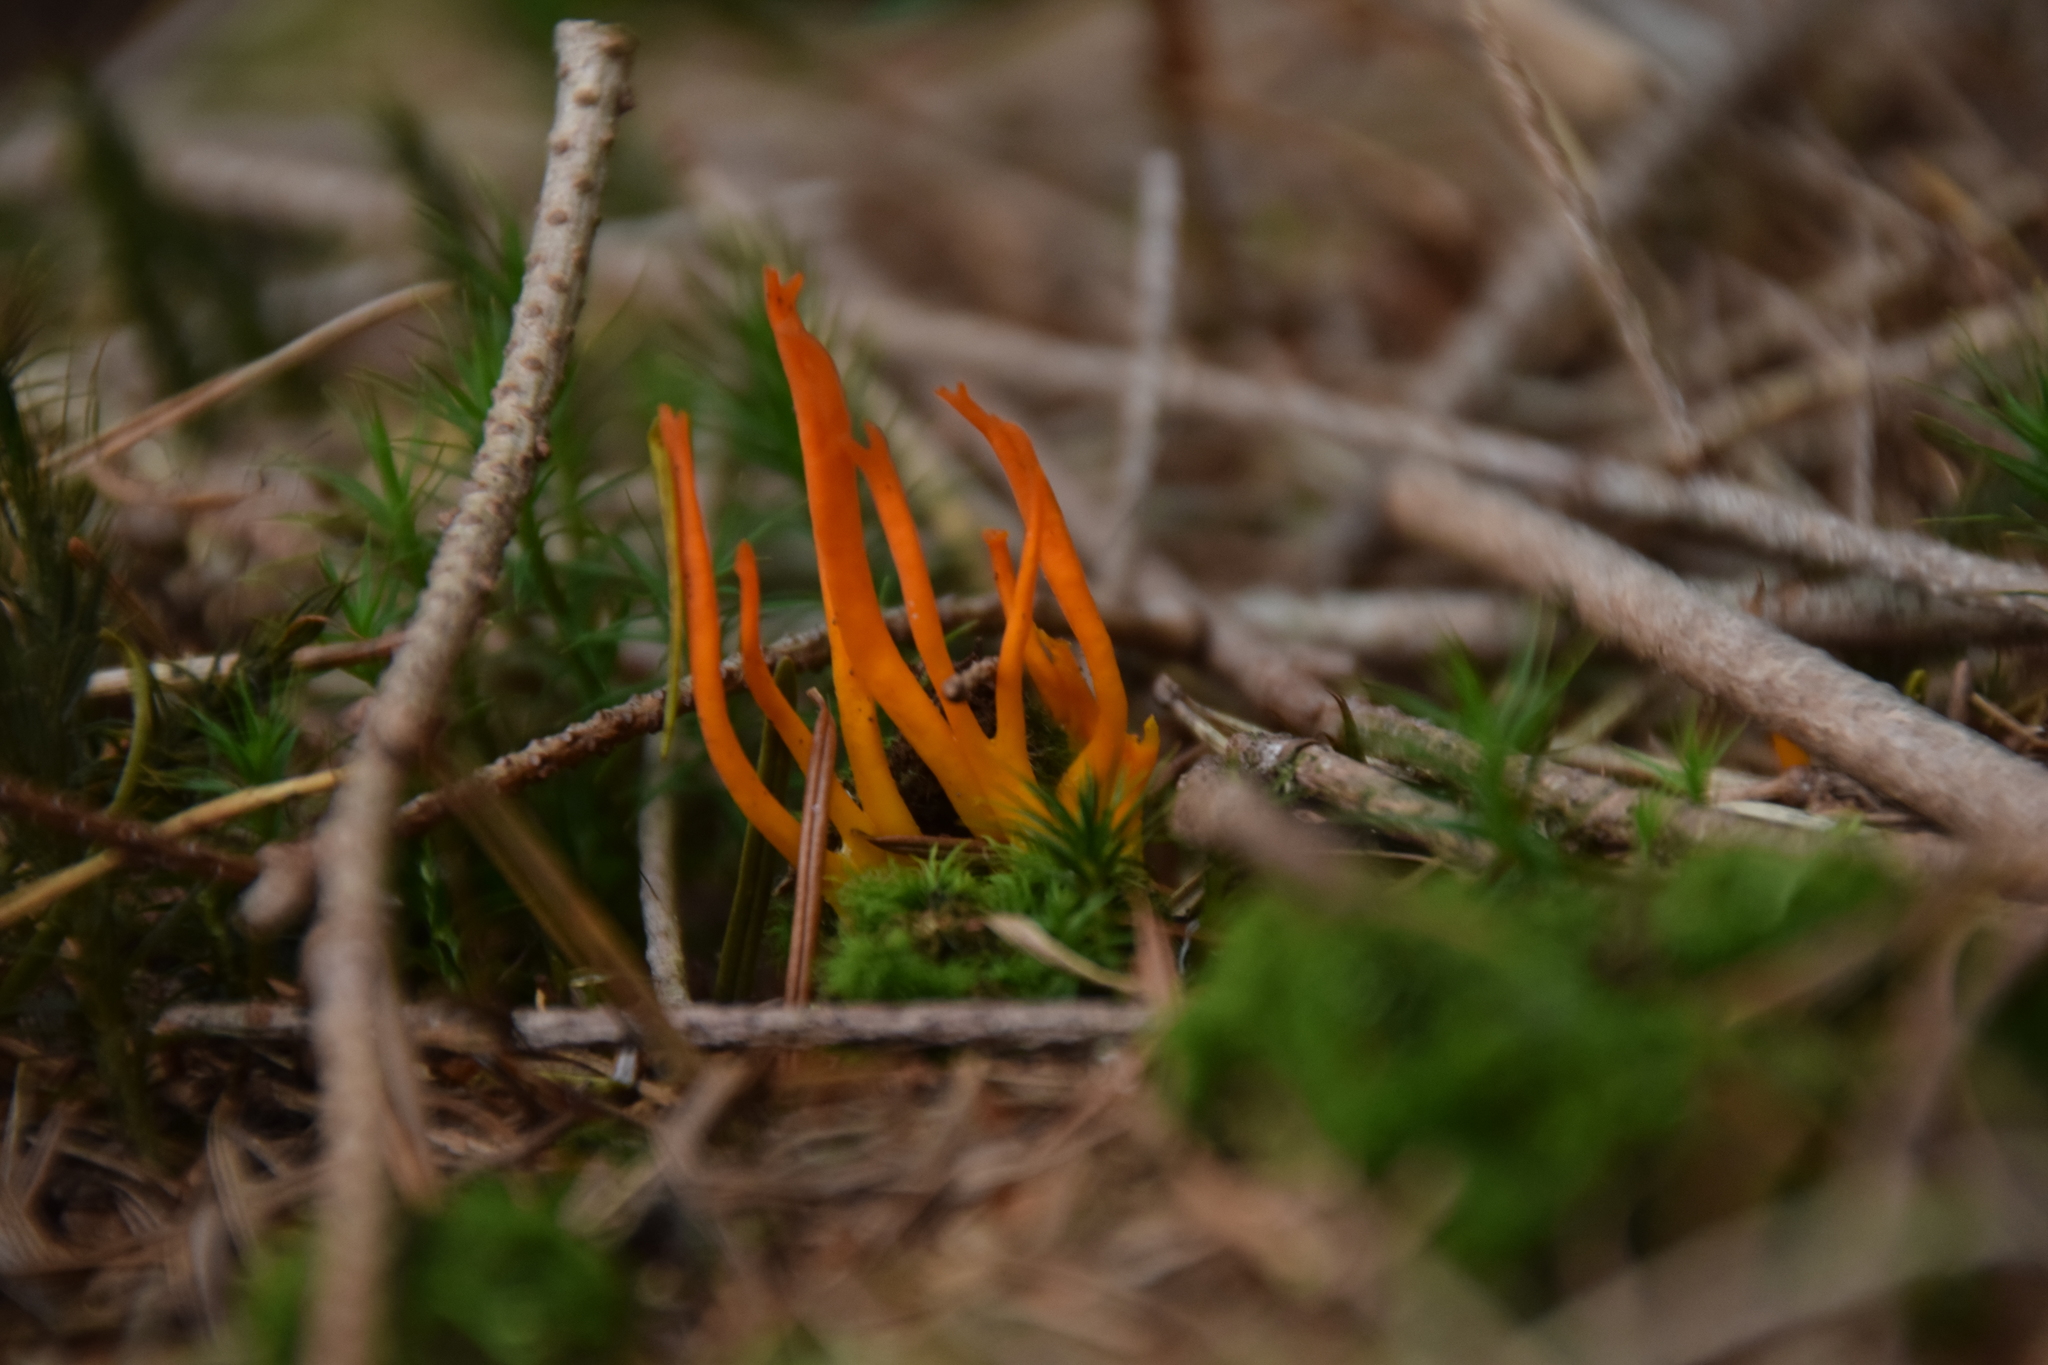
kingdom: Fungi
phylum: Basidiomycota
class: Dacrymycetes
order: Dacrymycetales
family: Dacrymycetaceae
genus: Calocera
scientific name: Calocera viscosa
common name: Yellow stagshorn
